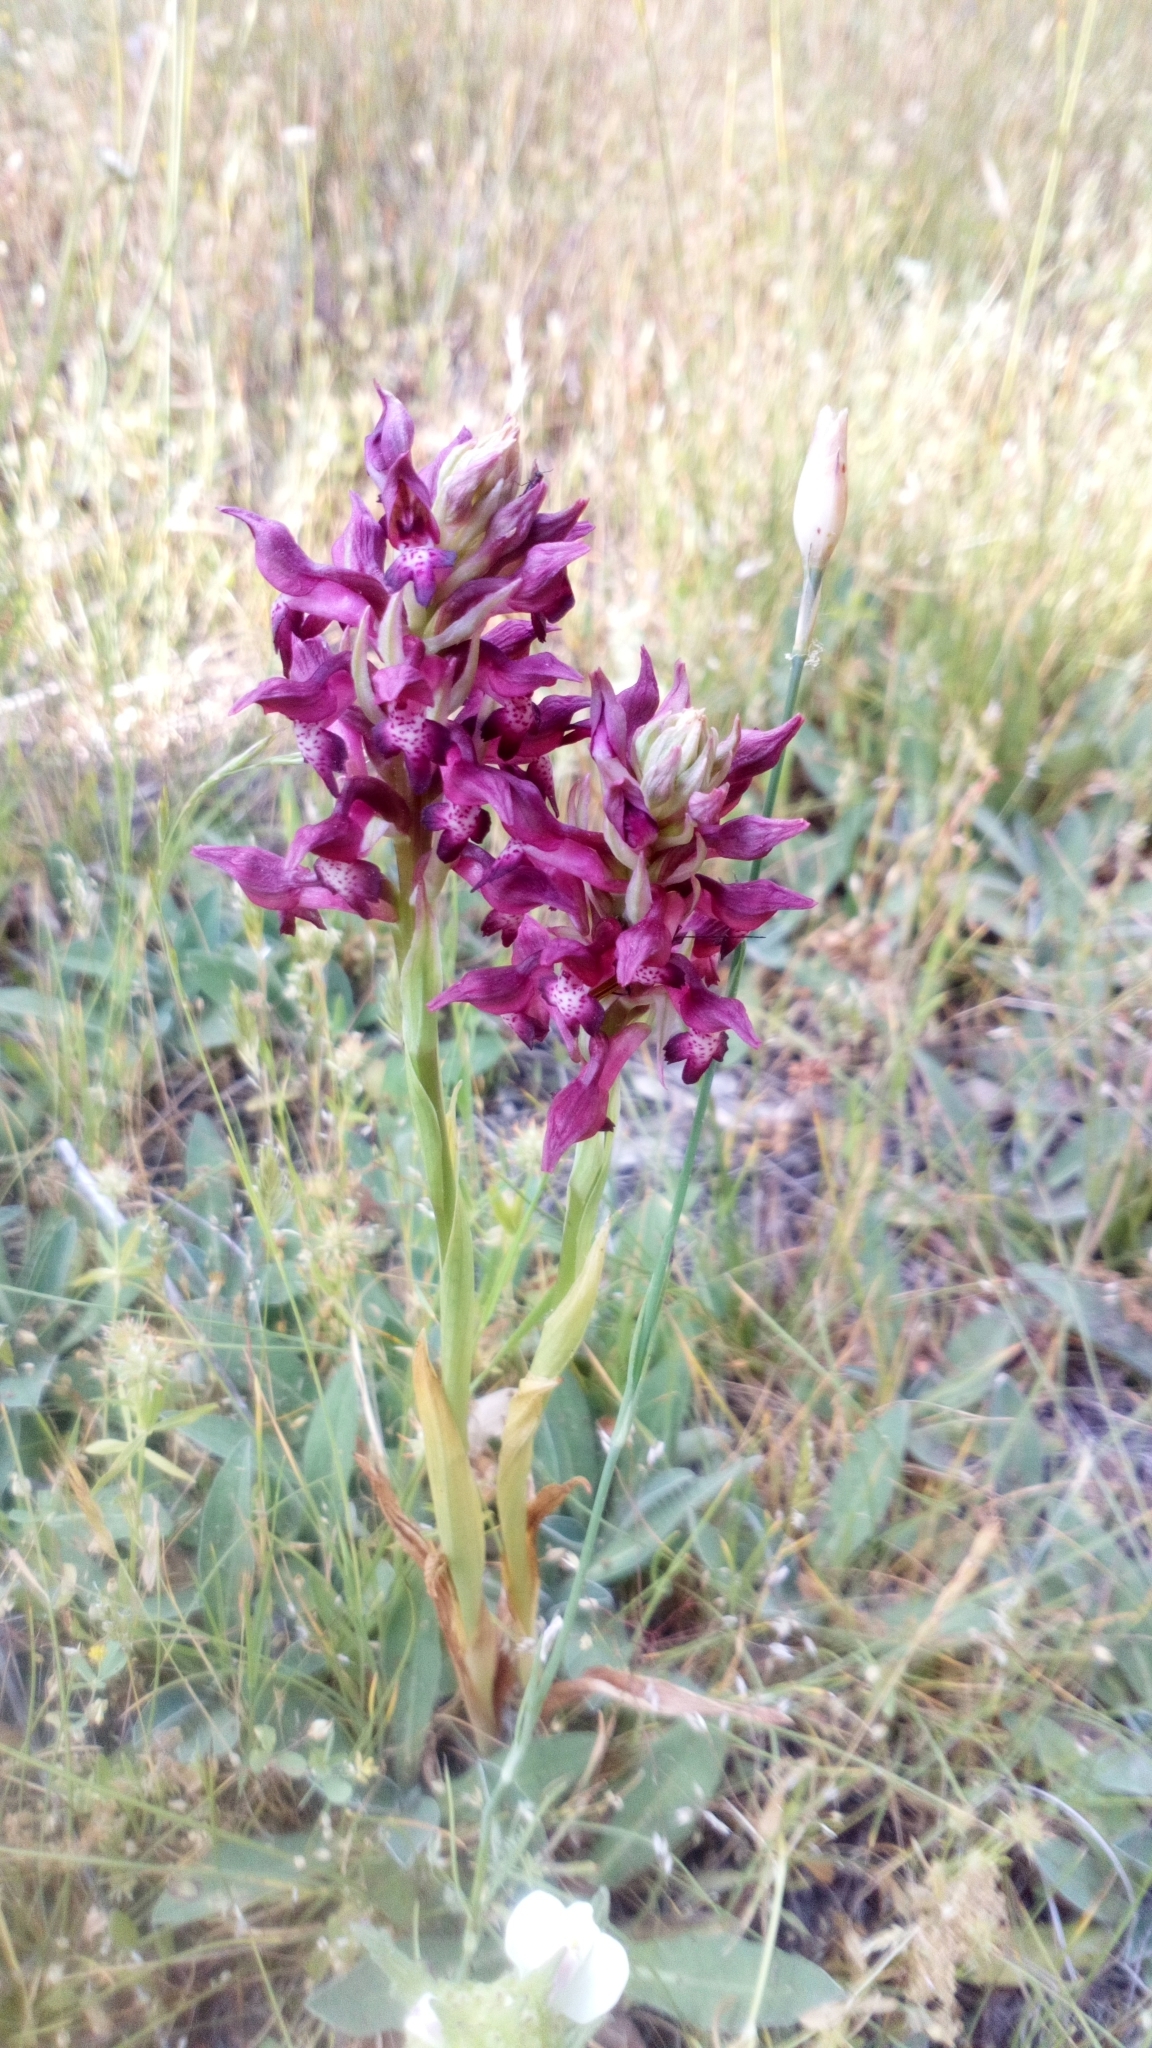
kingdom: Plantae
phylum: Tracheophyta
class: Liliopsida
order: Asparagales
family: Orchidaceae
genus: Anacamptis
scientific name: Anacamptis coriophora
